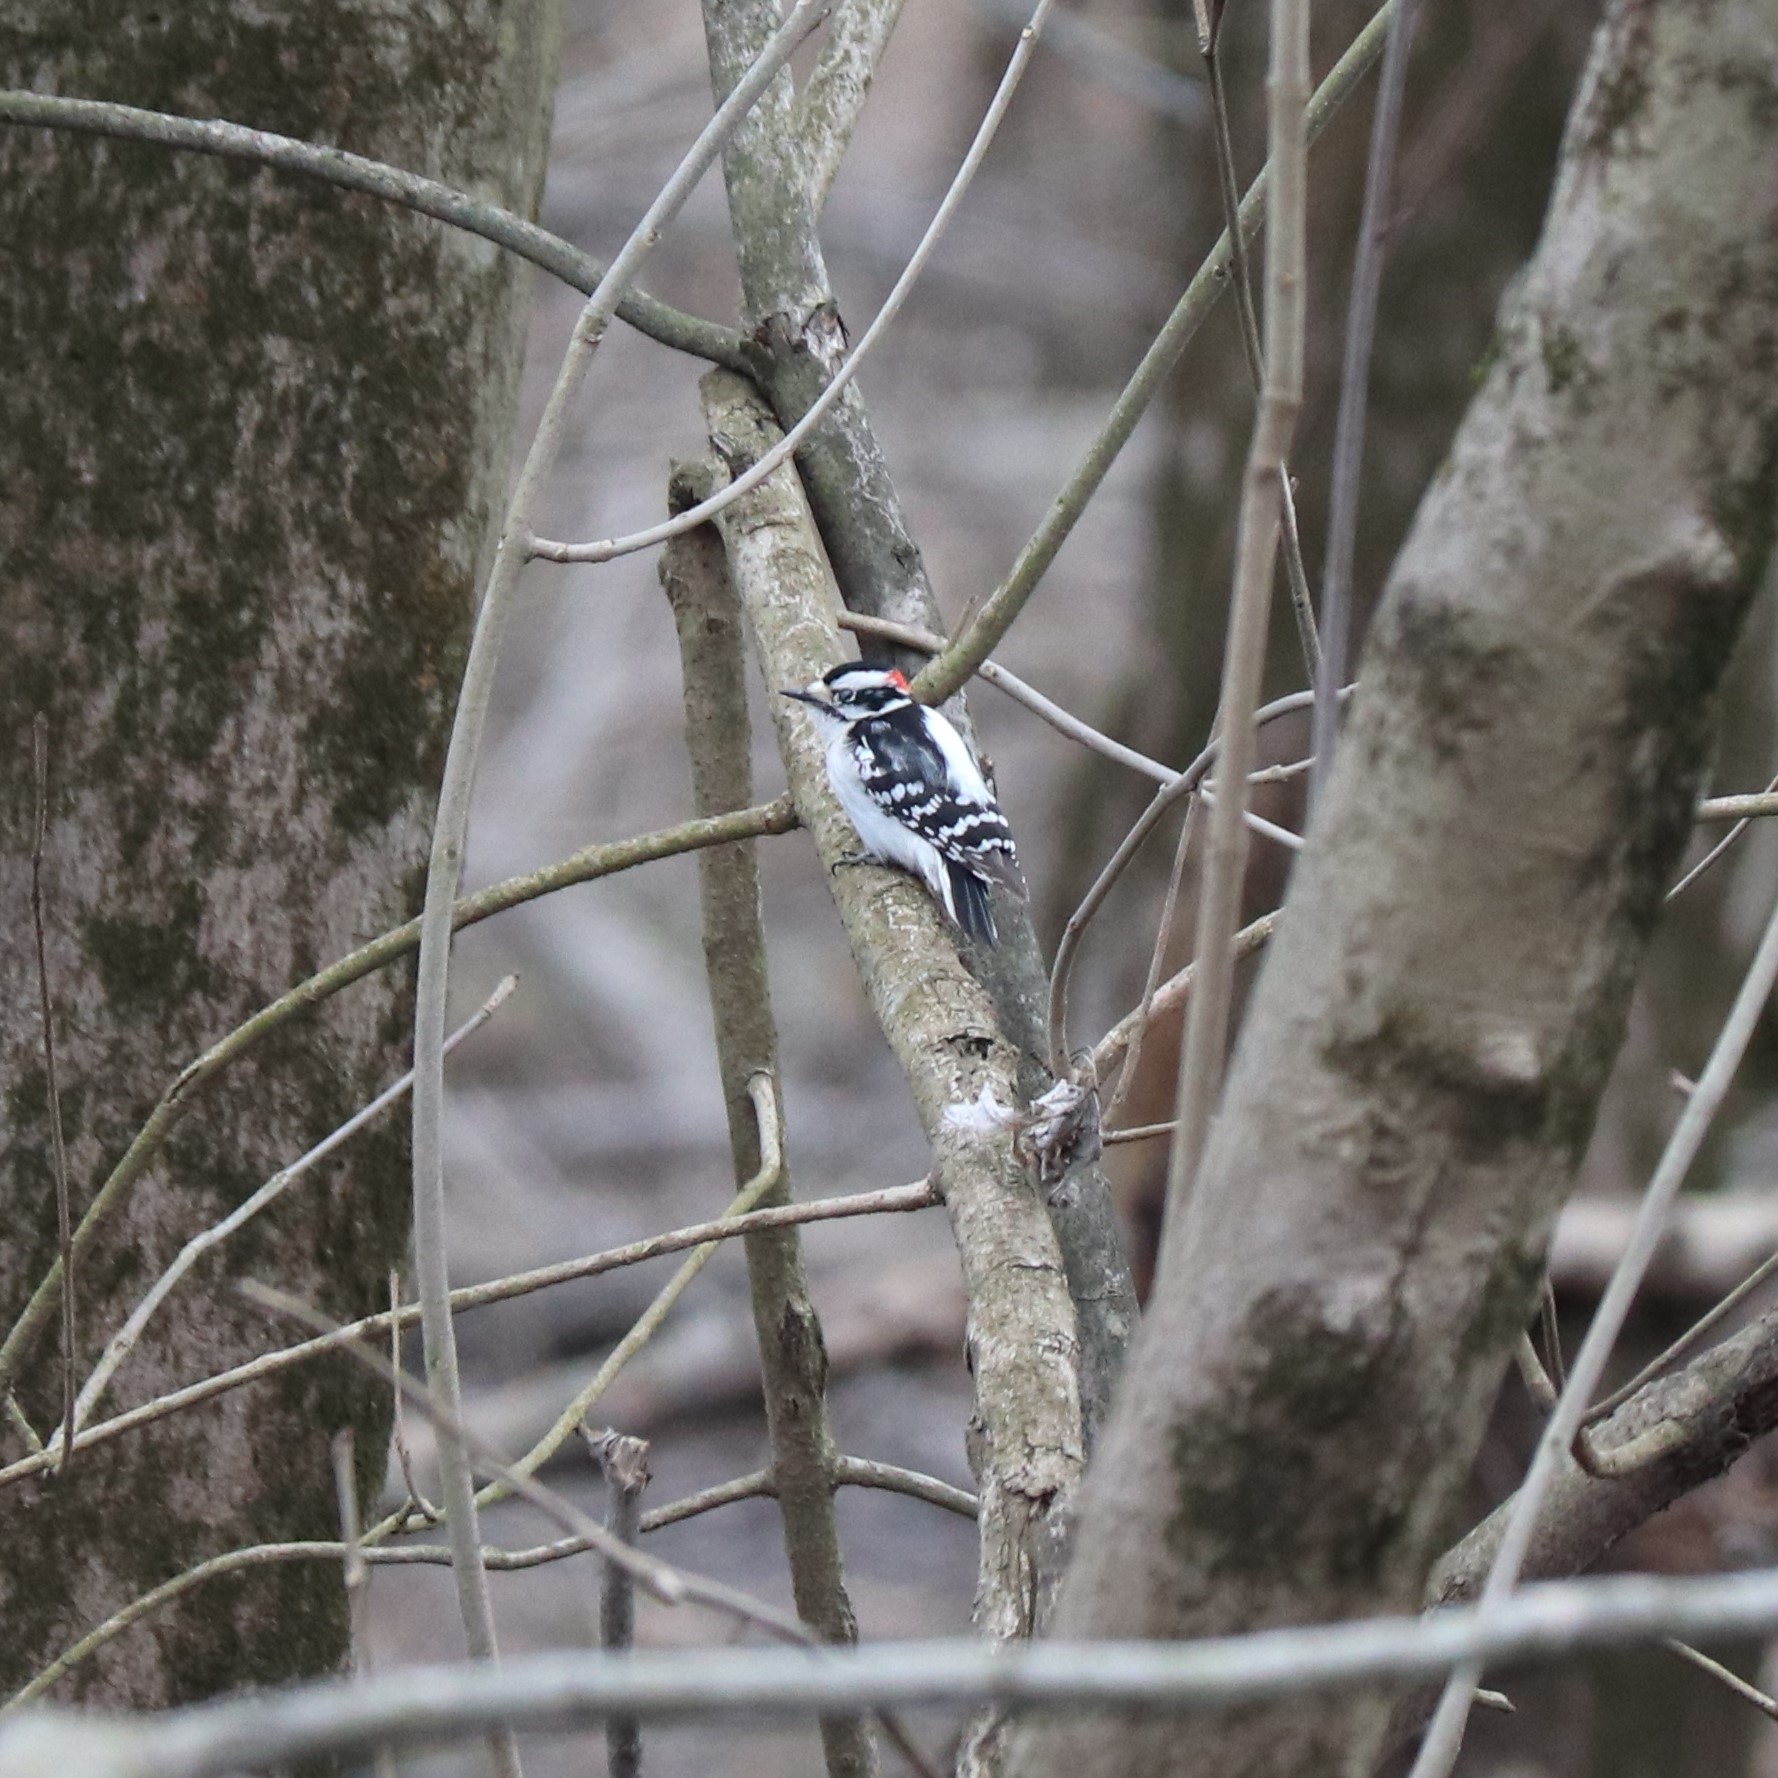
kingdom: Animalia
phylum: Chordata
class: Aves
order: Piciformes
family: Picidae
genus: Dryobates
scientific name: Dryobates pubescens
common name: Downy woodpecker
